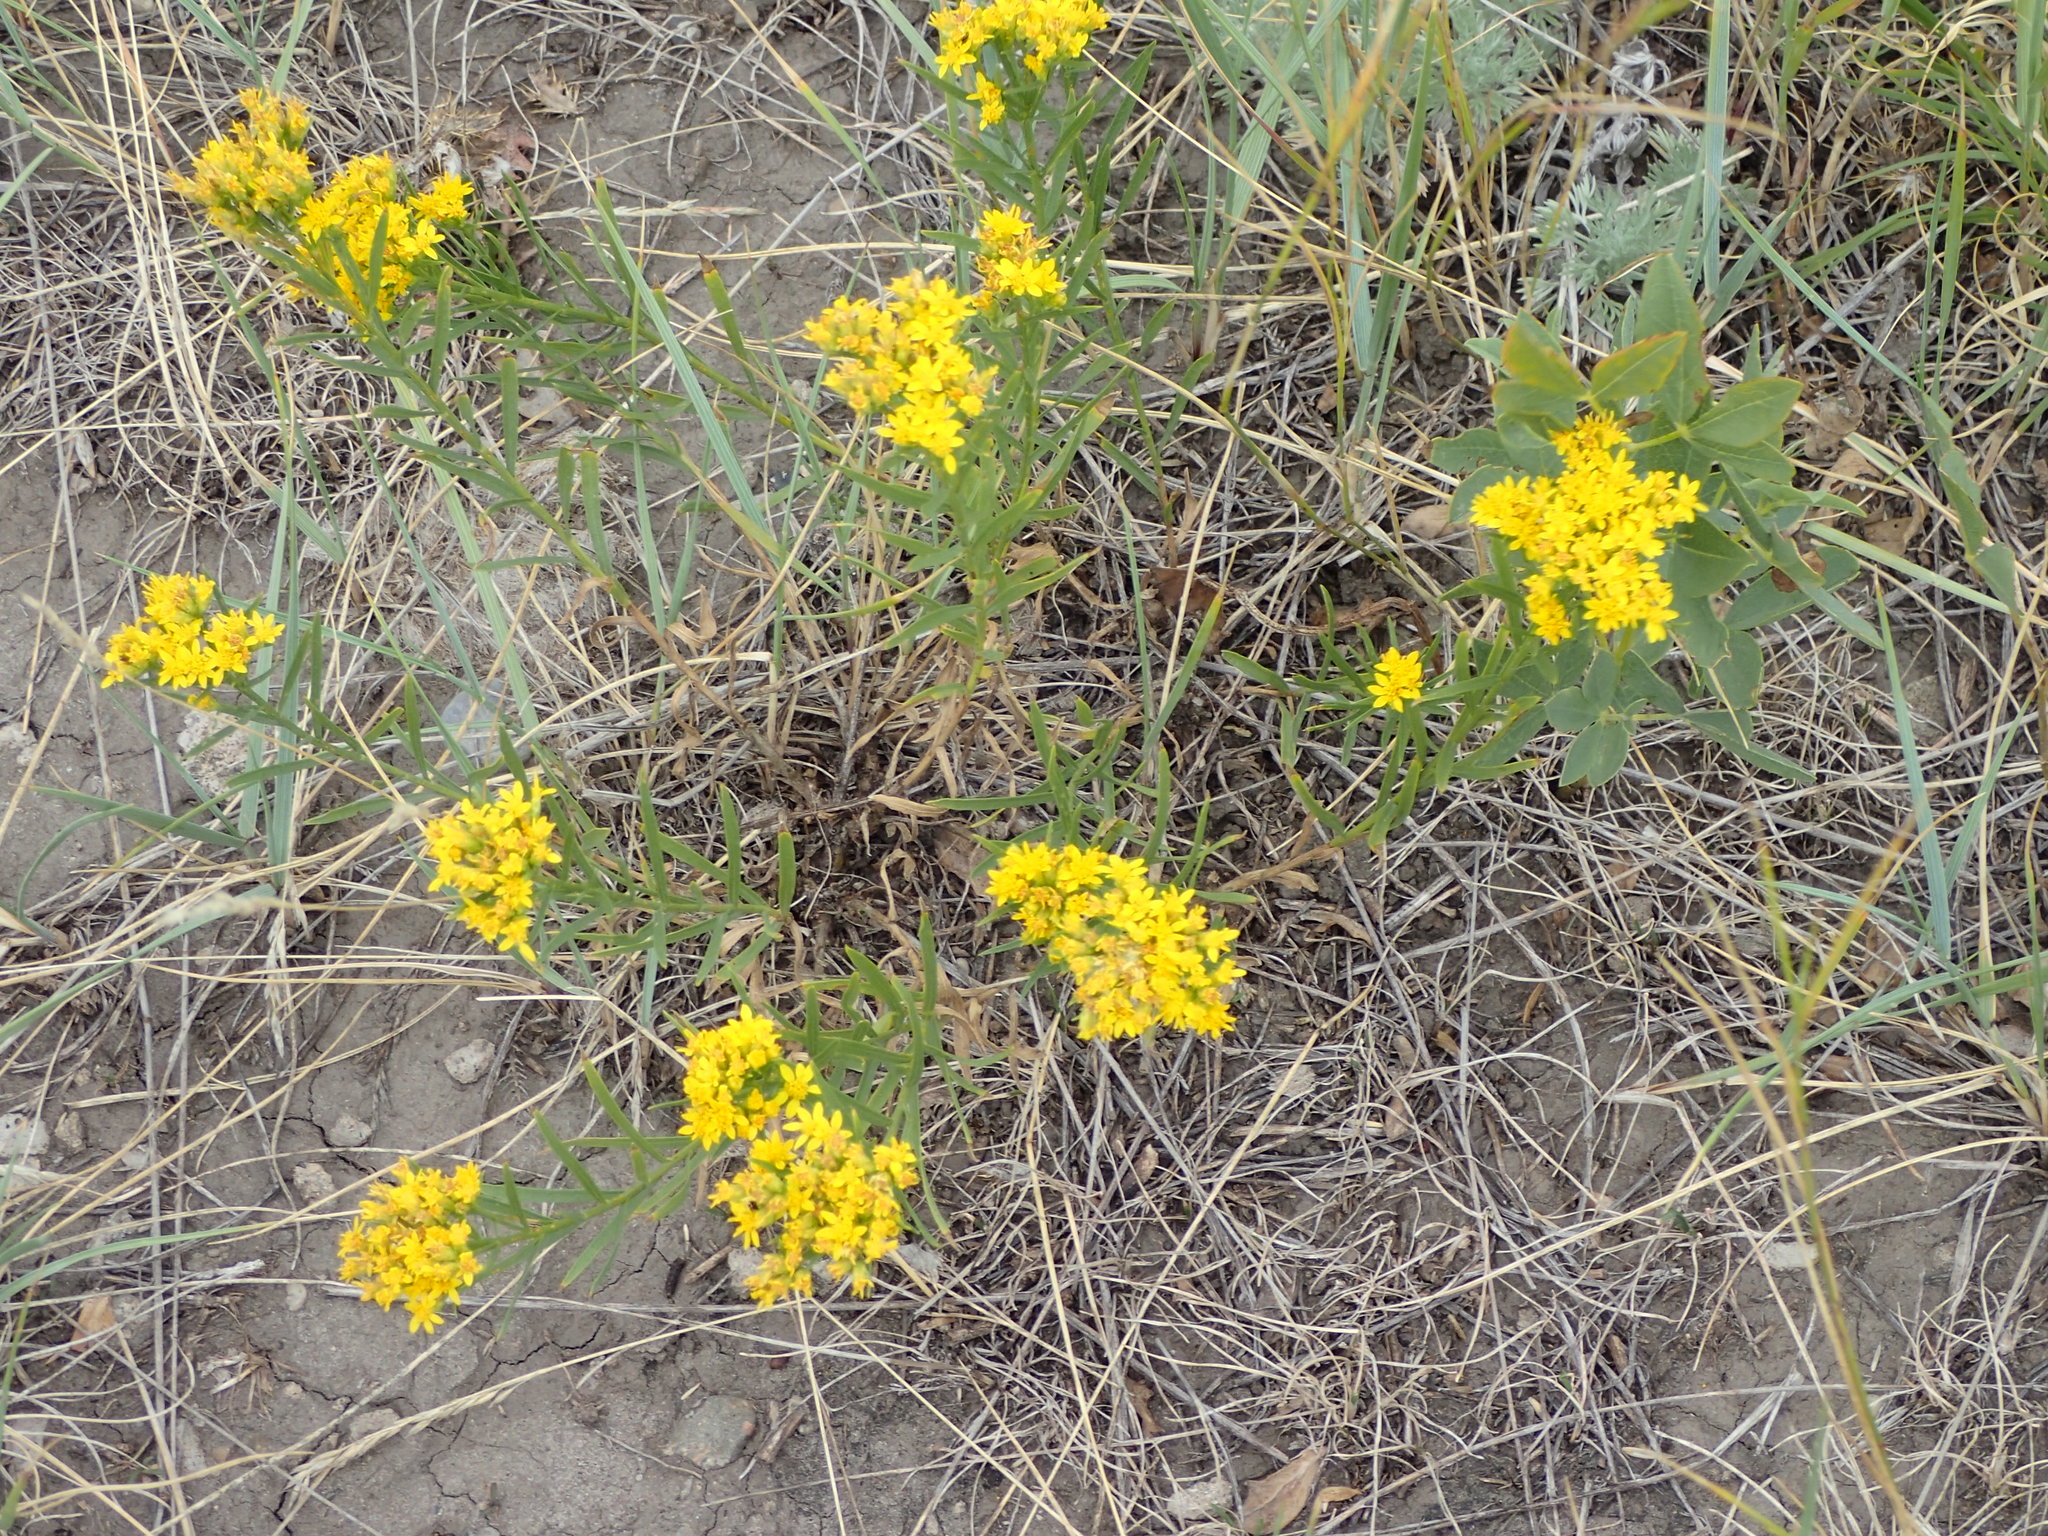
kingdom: Plantae
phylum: Tracheophyta
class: Magnoliopsida
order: Asterales
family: Asteraceae
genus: Heterotheca
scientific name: Heterotheca villosa
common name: Hairy false goldenaster
